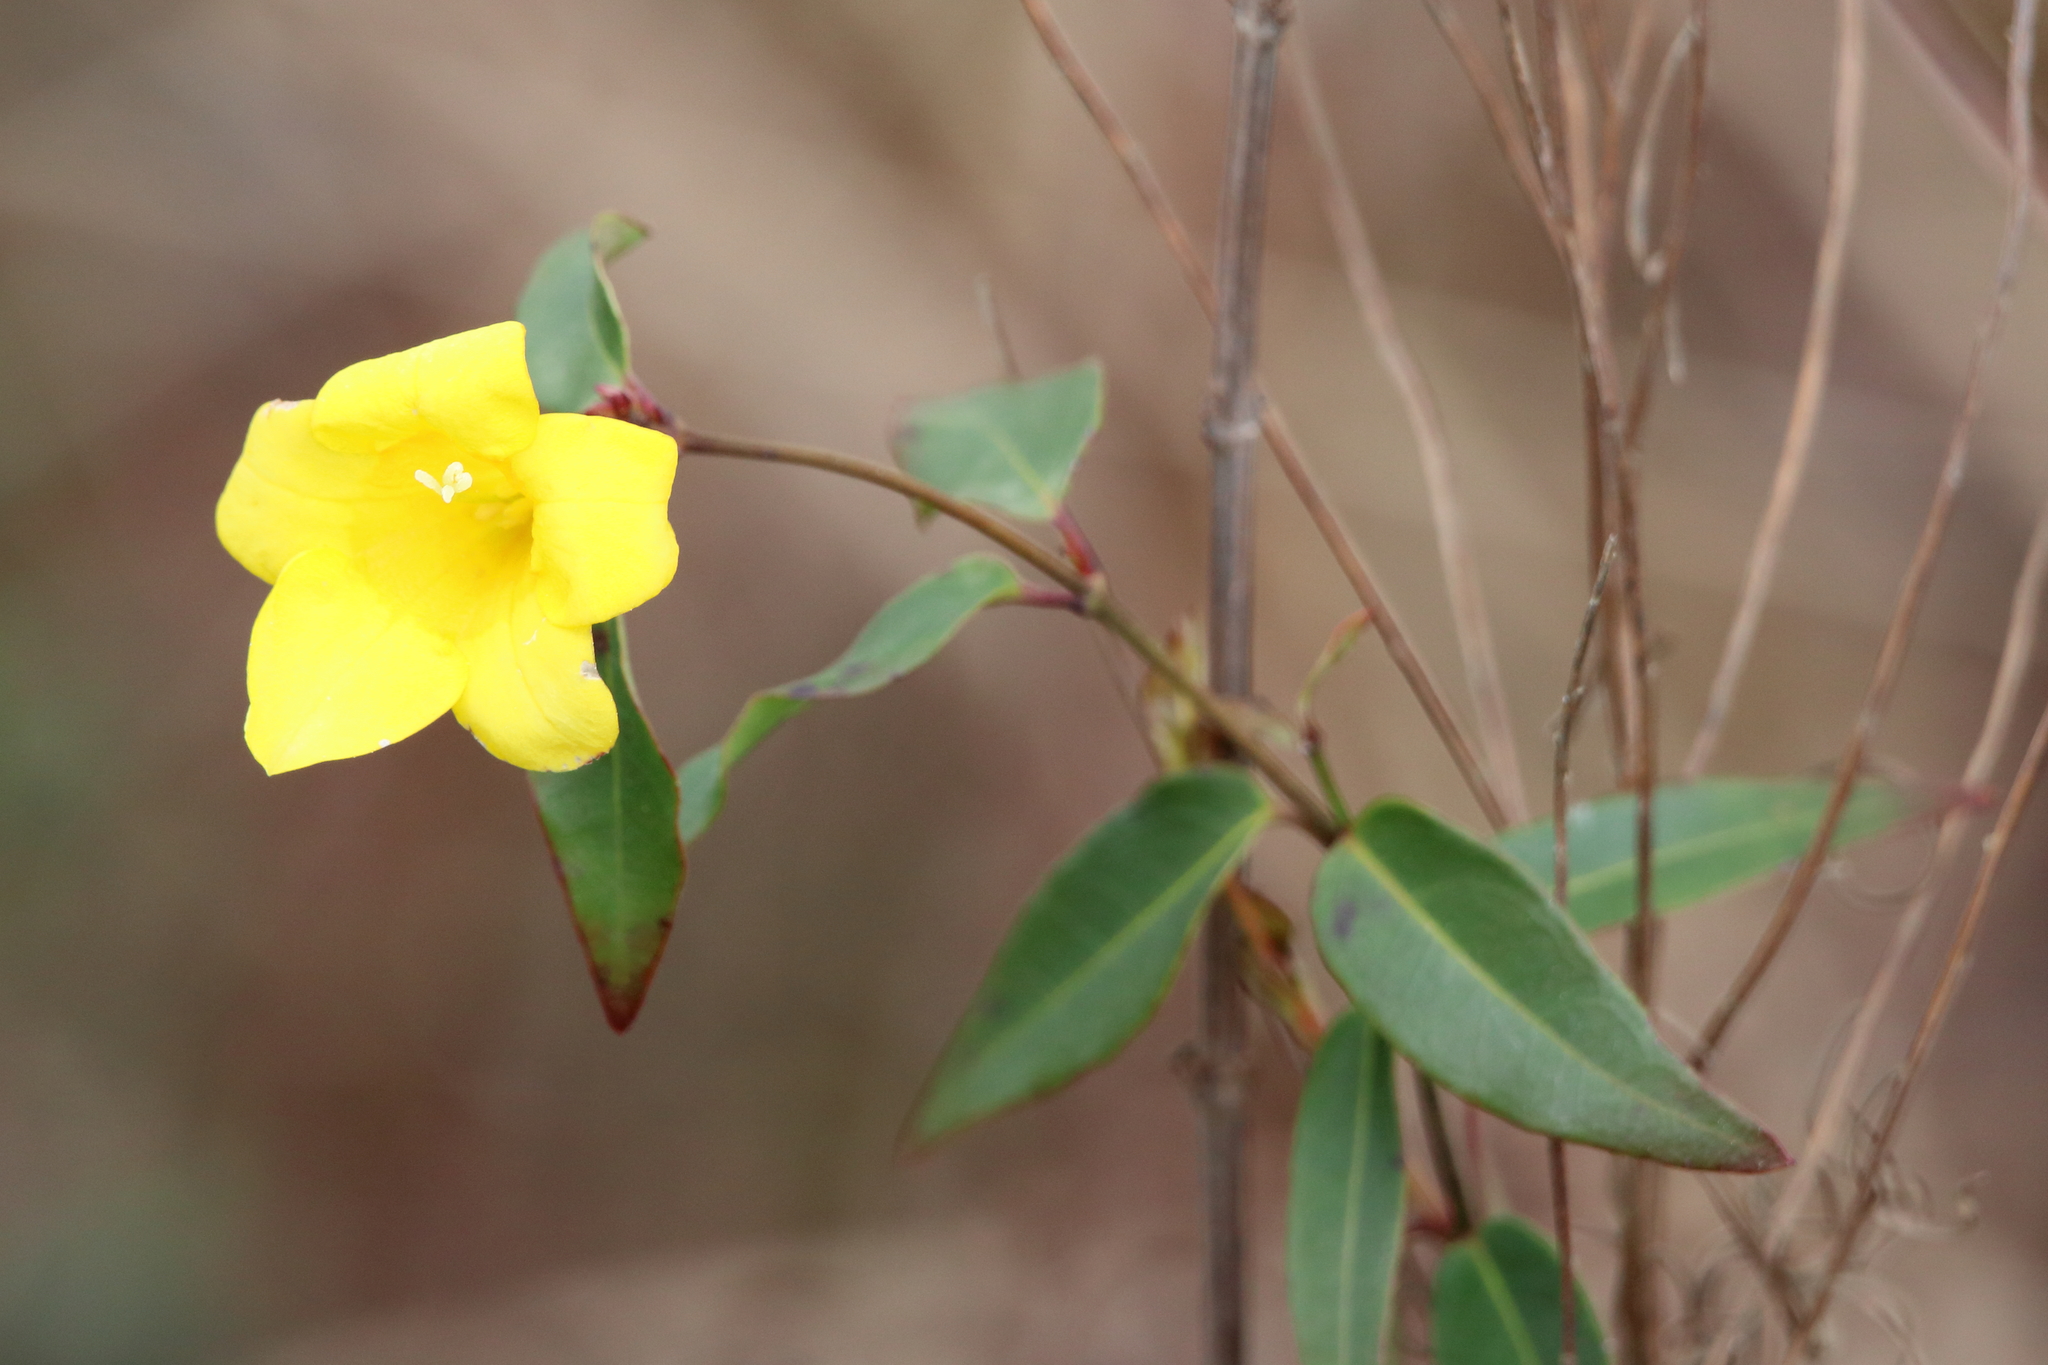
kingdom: Plantae
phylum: Tracheophyta
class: Magnoliopsida
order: Gentianales
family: Gelsemiaceae
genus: Gelsemium
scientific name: Gelsemium sempervirens
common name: Carolina-jasmine
